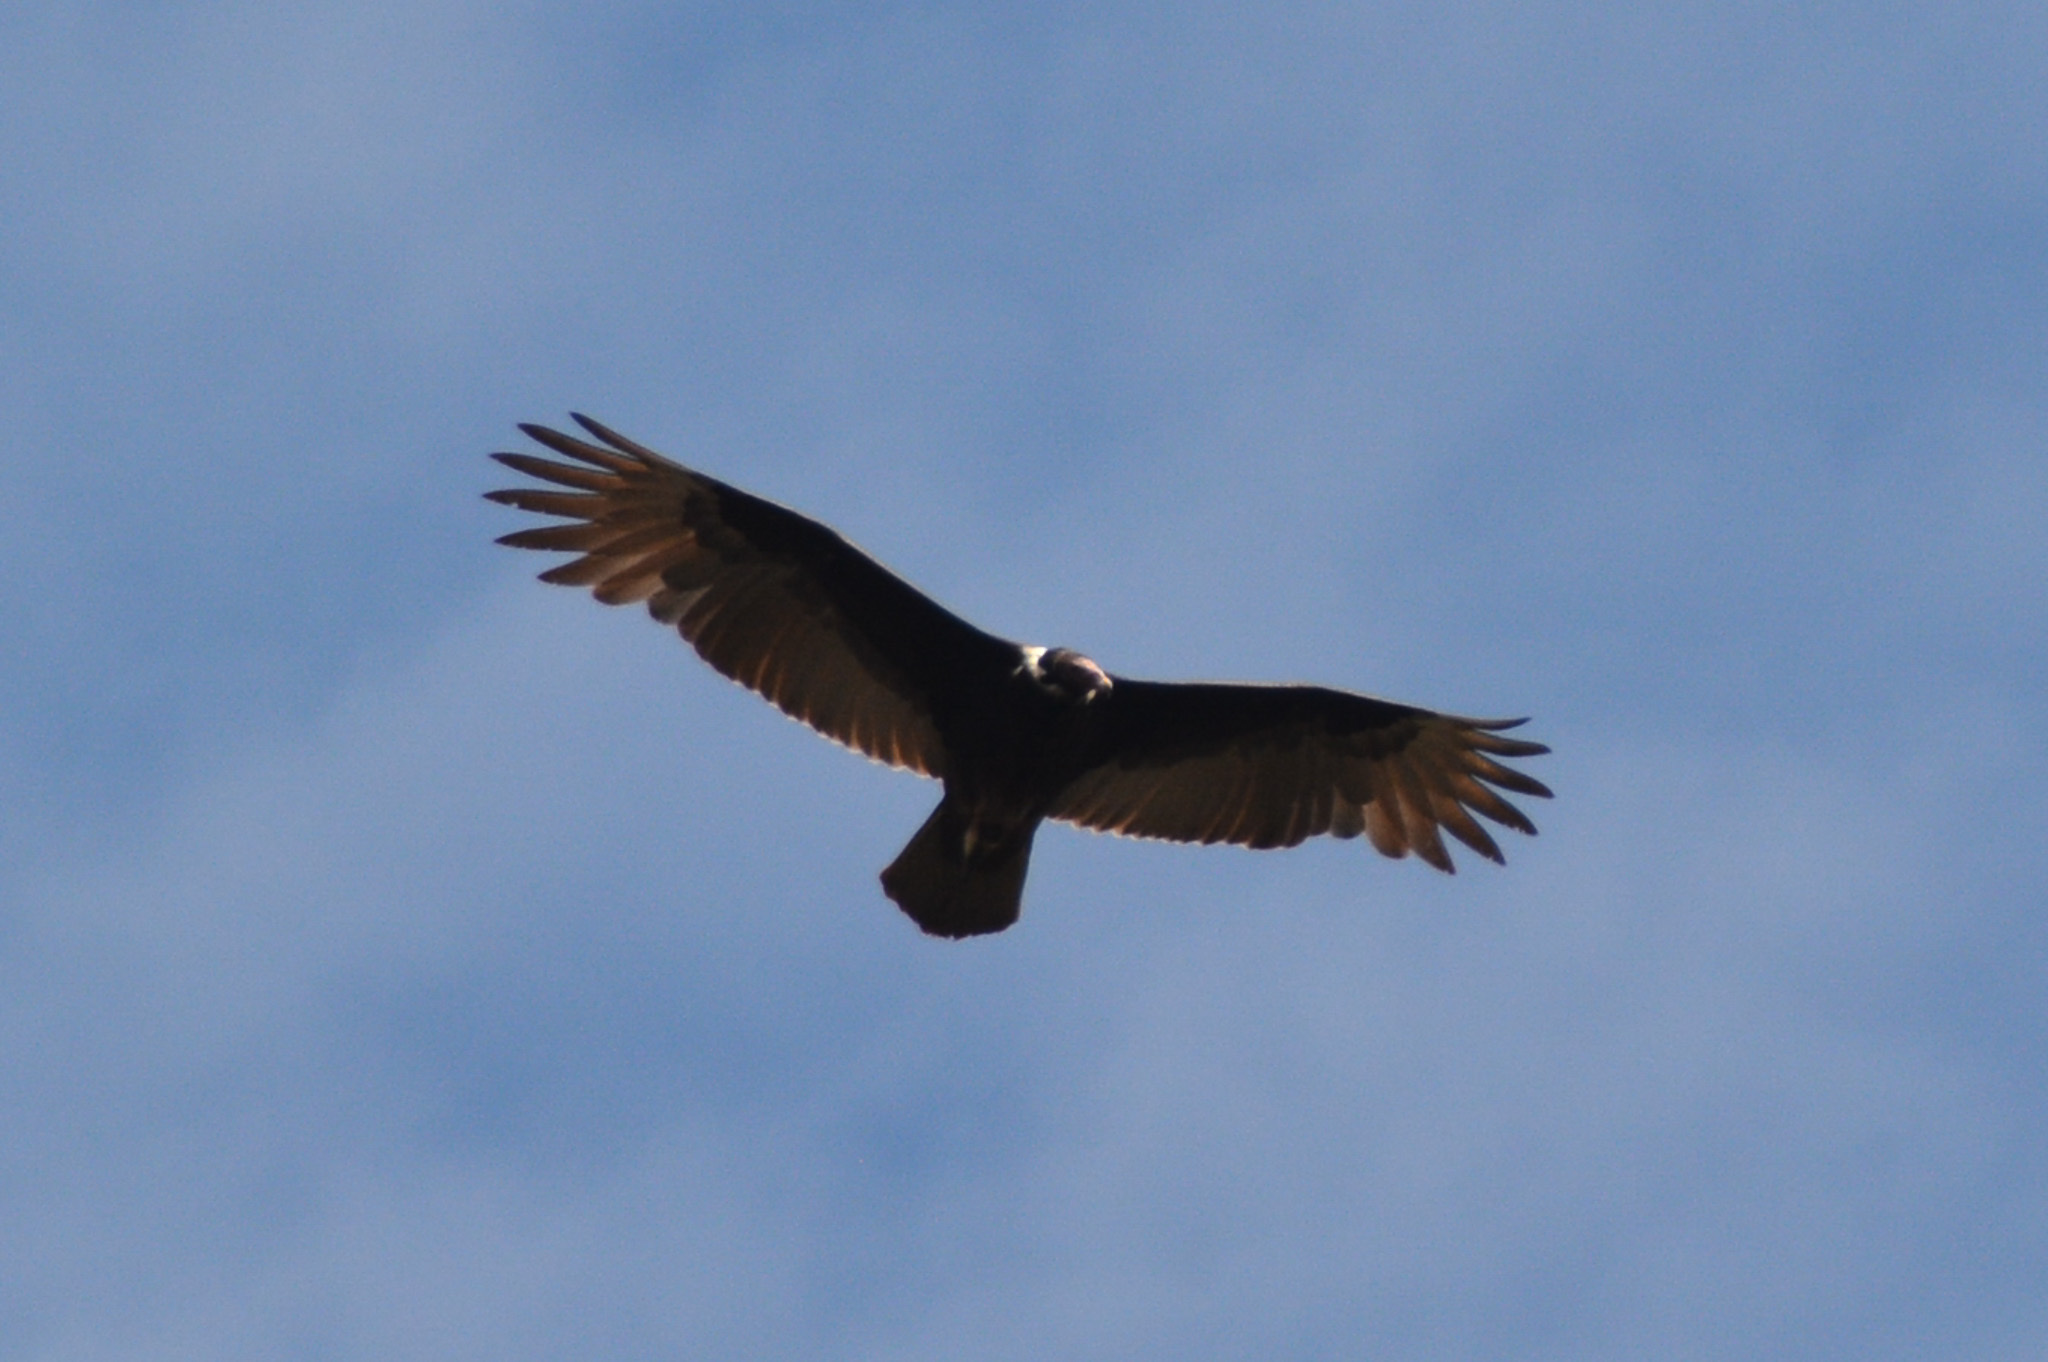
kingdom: Animalia
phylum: Chordata
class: Aves
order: Accipitriformes
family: Cathartidae
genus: Cathartes
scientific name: Cathartes aura
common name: Turkey vulture
